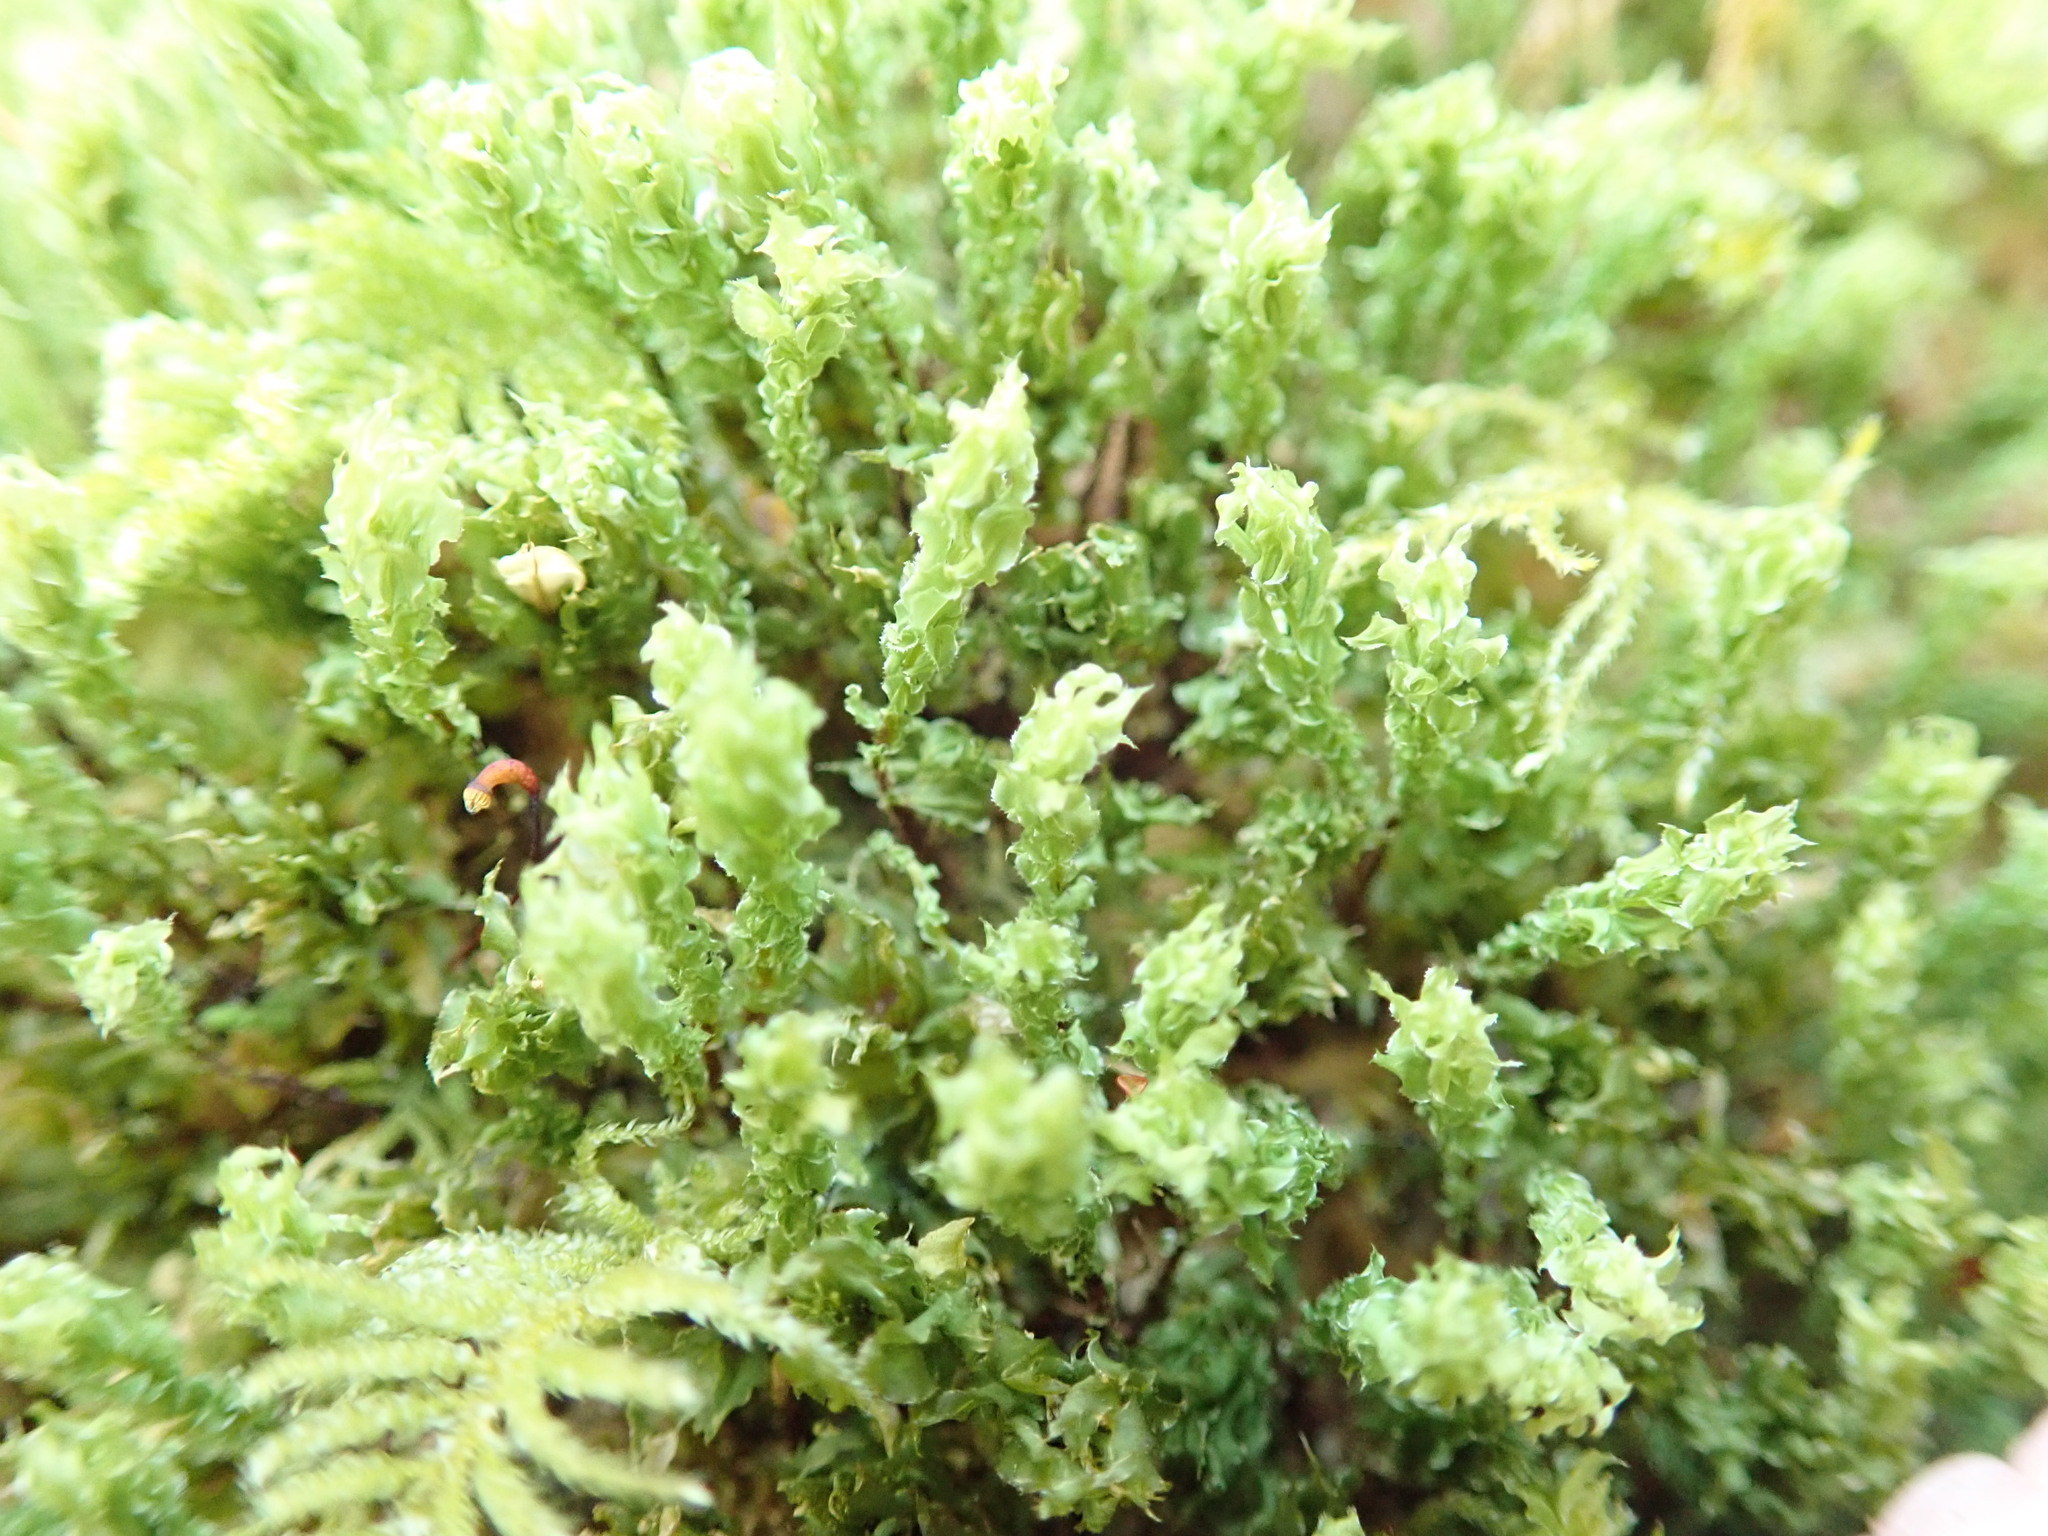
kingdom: Plantae
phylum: Bryophyta
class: Bryopsida
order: Bryales
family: Mniaceae
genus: Plagiomnium
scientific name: Plagiomnium venustum
